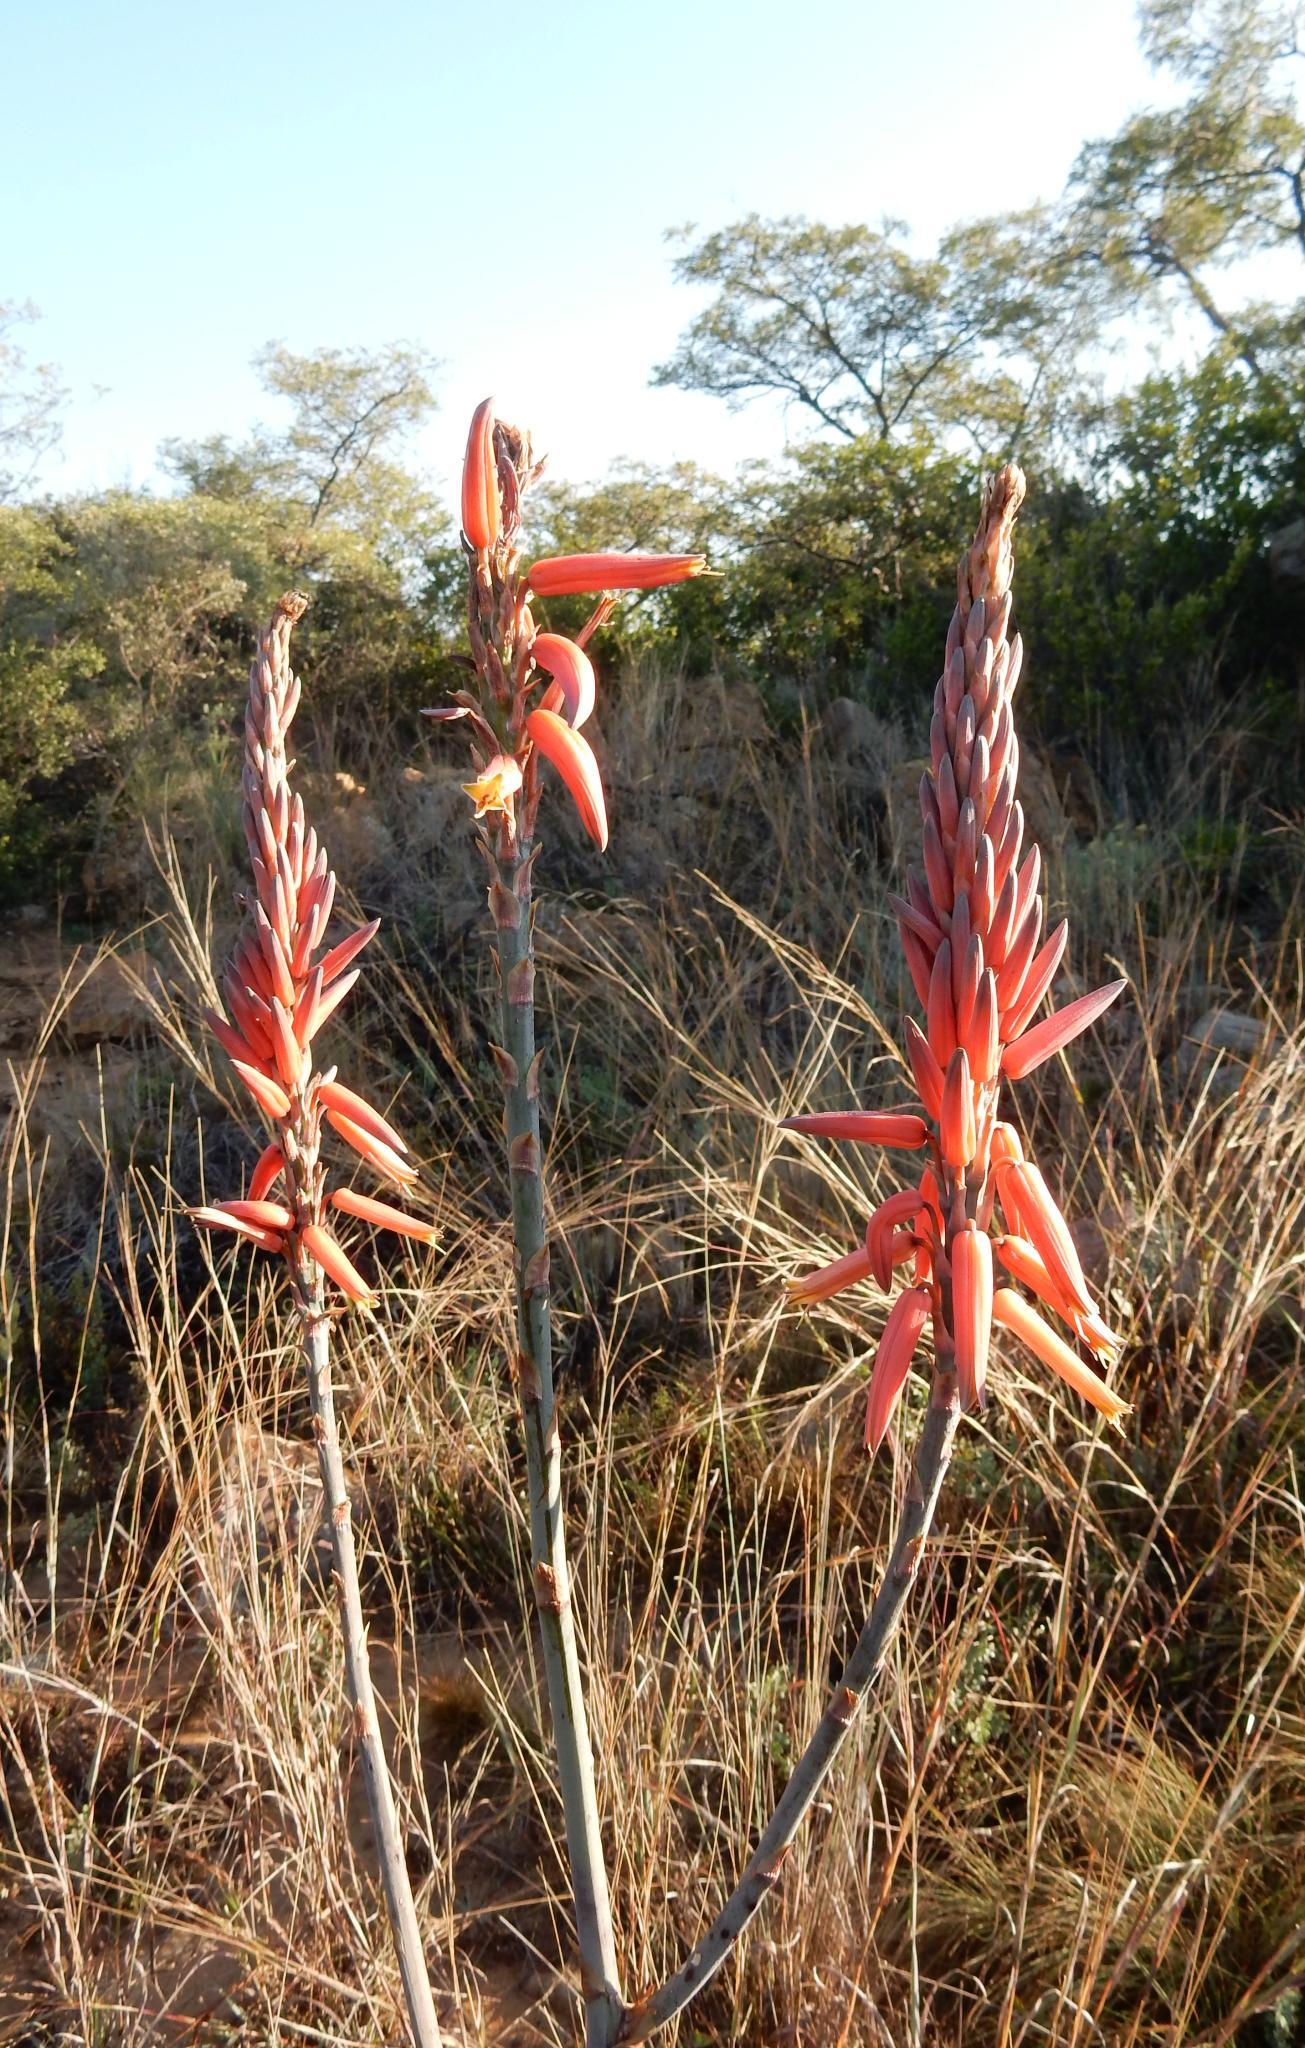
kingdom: Plantae
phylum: Tracheophyta
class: Liliopsida
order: Asparagales
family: Asphodelaceae
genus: Aloe
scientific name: Aloe pretoriensis
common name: Pretoria aloe
